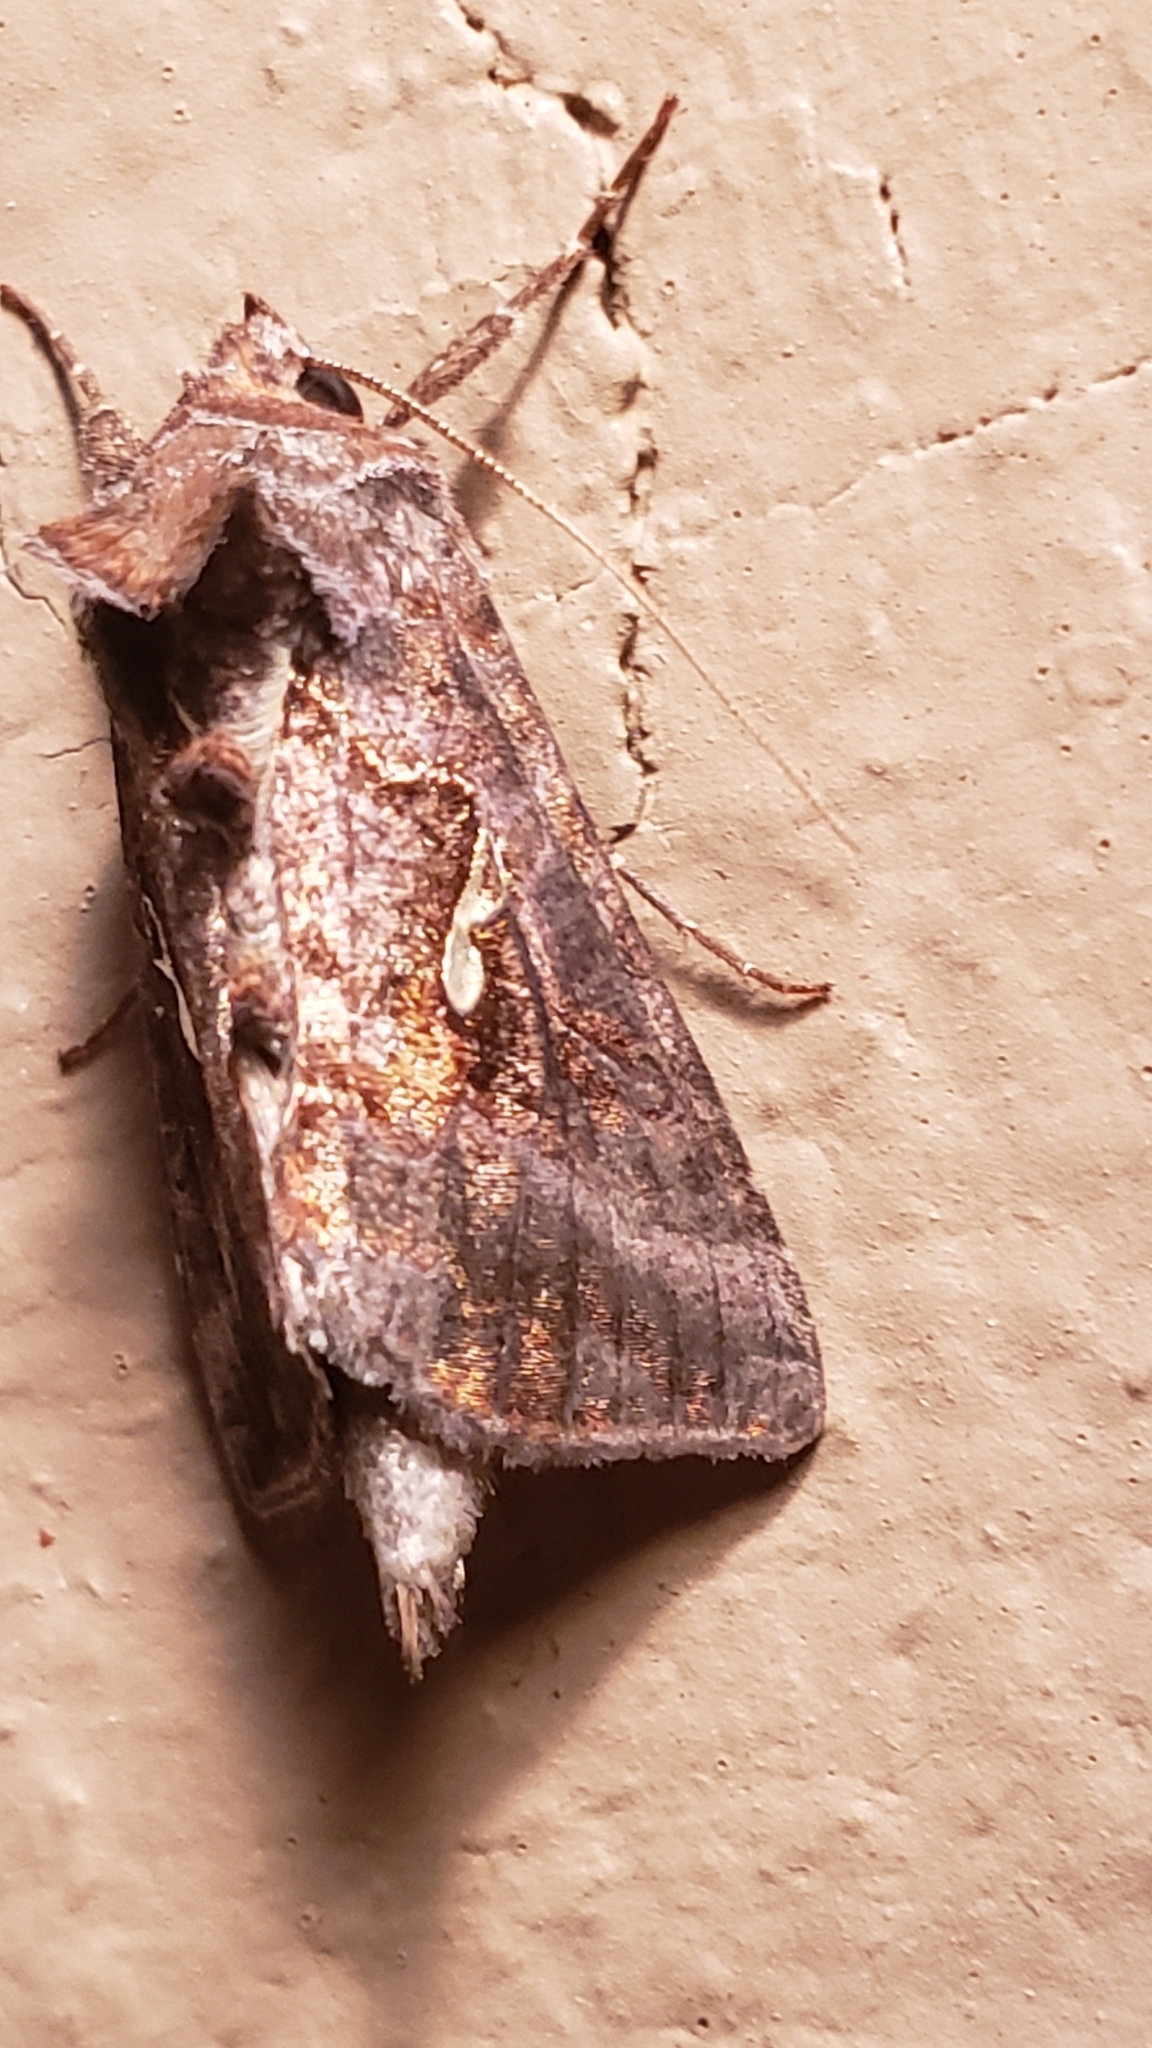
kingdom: Animalia
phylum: Arthropoda
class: Insecta
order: Lepidoptera
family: Noctuidae
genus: Autographa
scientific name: Autographa precationis
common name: Common looper moth
